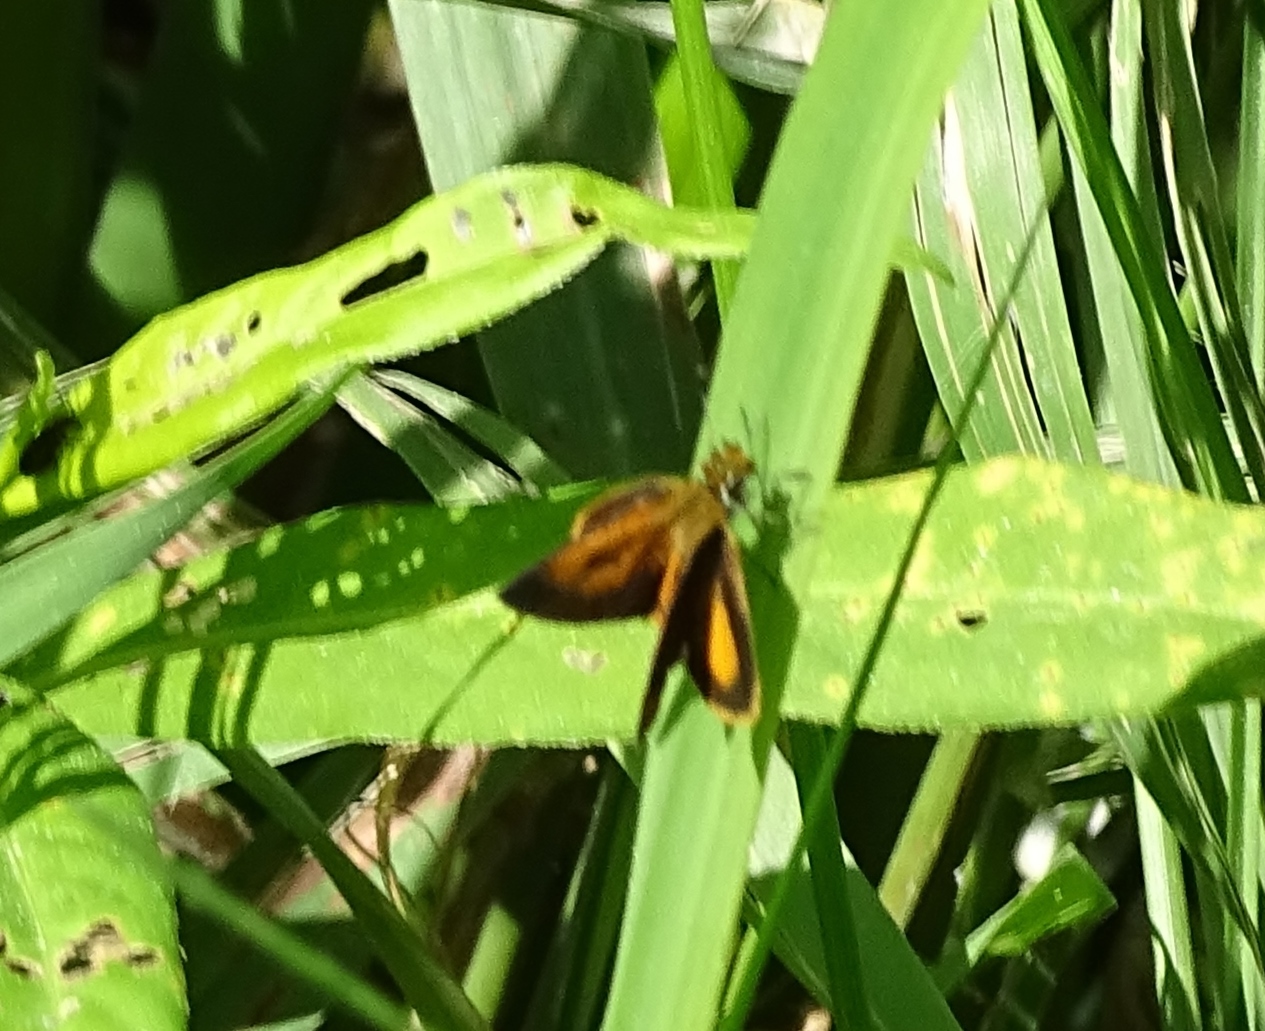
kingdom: Animalia
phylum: Arthropoda
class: Insecta
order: Lepidoptera
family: Hesperiidae
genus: Ancyloxypha
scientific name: Ancyloxypha numitor
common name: Least skipper
